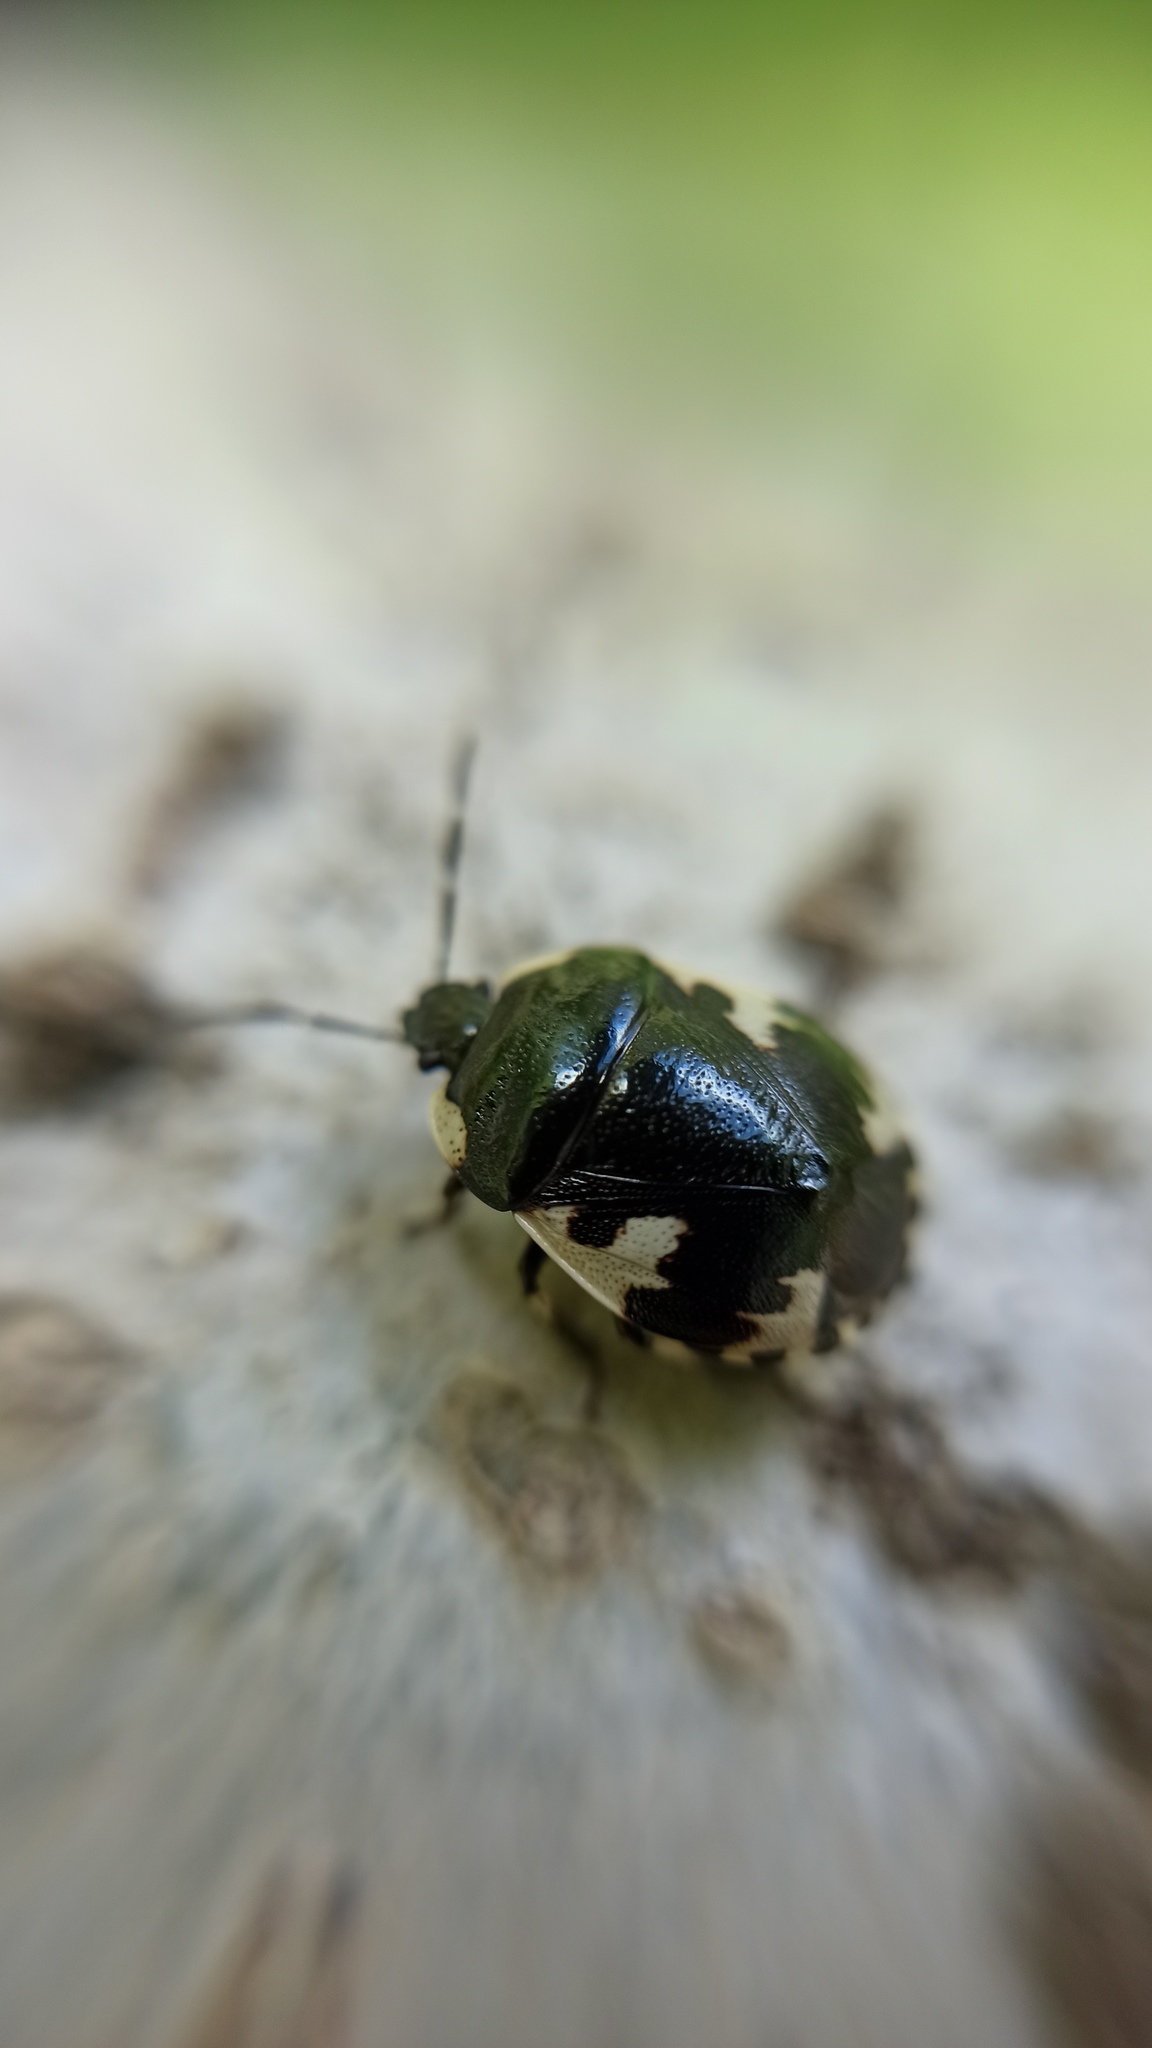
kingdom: Animalia
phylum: Arthropoda
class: Insecta
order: Hemiptera
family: Cydnidae
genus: Tritomegas
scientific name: Tritomegas rotundipennis
